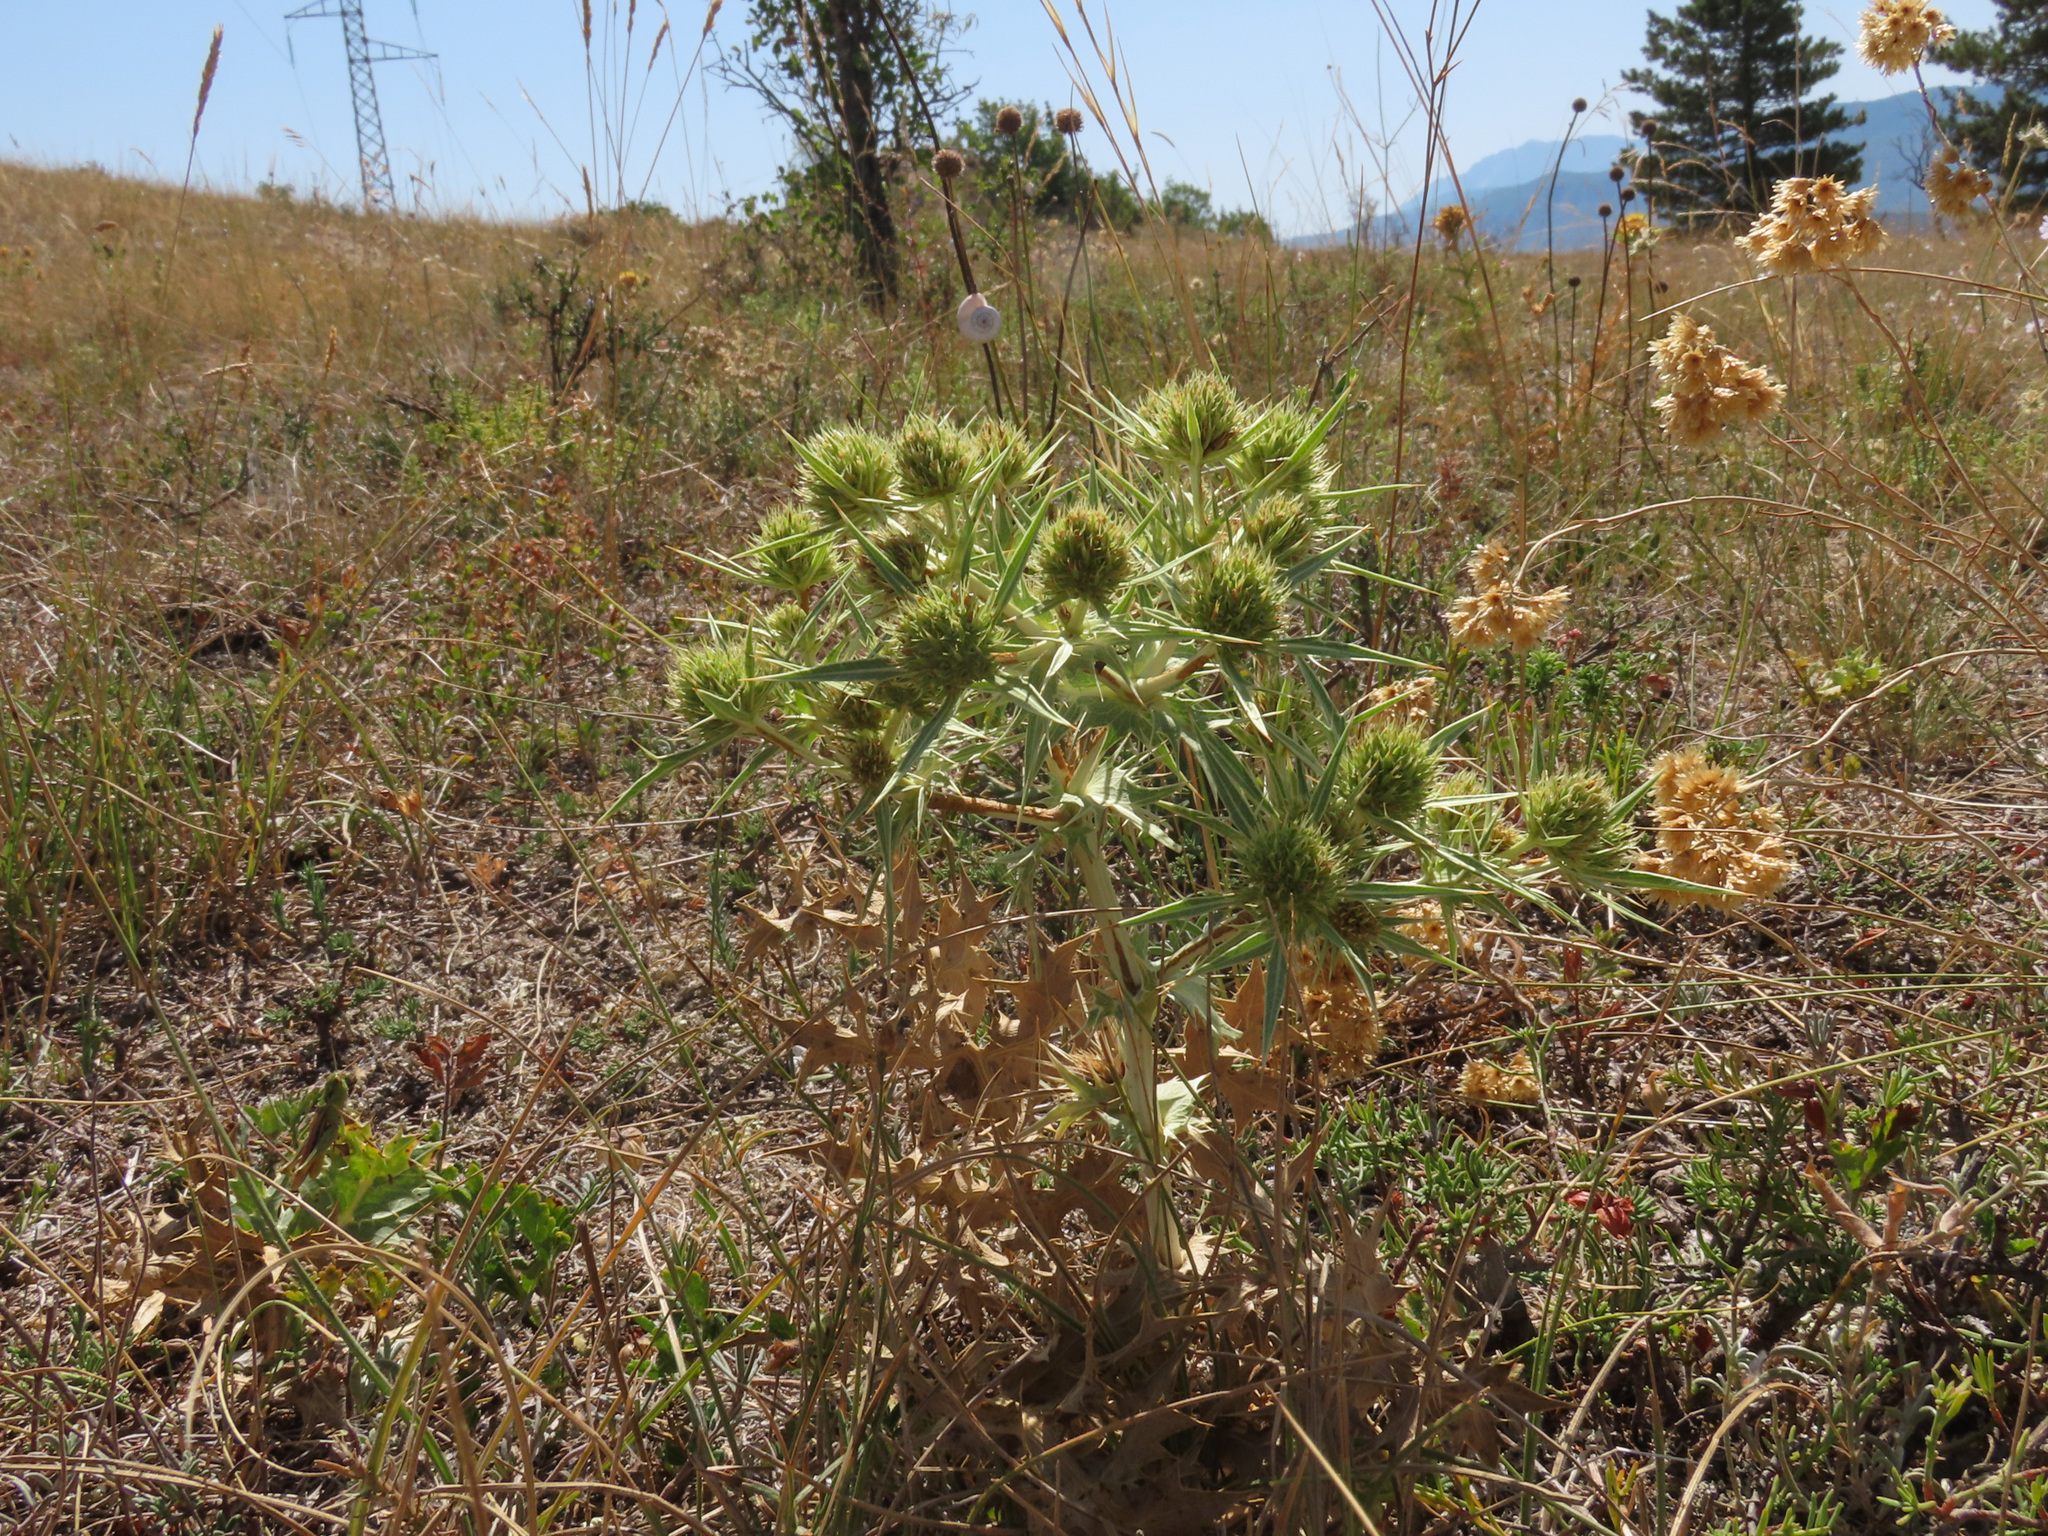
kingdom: Plantae
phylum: Tracheophyta
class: Magnoliopsida
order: Apiales
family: Apiaceae
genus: Eryngium
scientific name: Eryngium campestre
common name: Field eryngo
